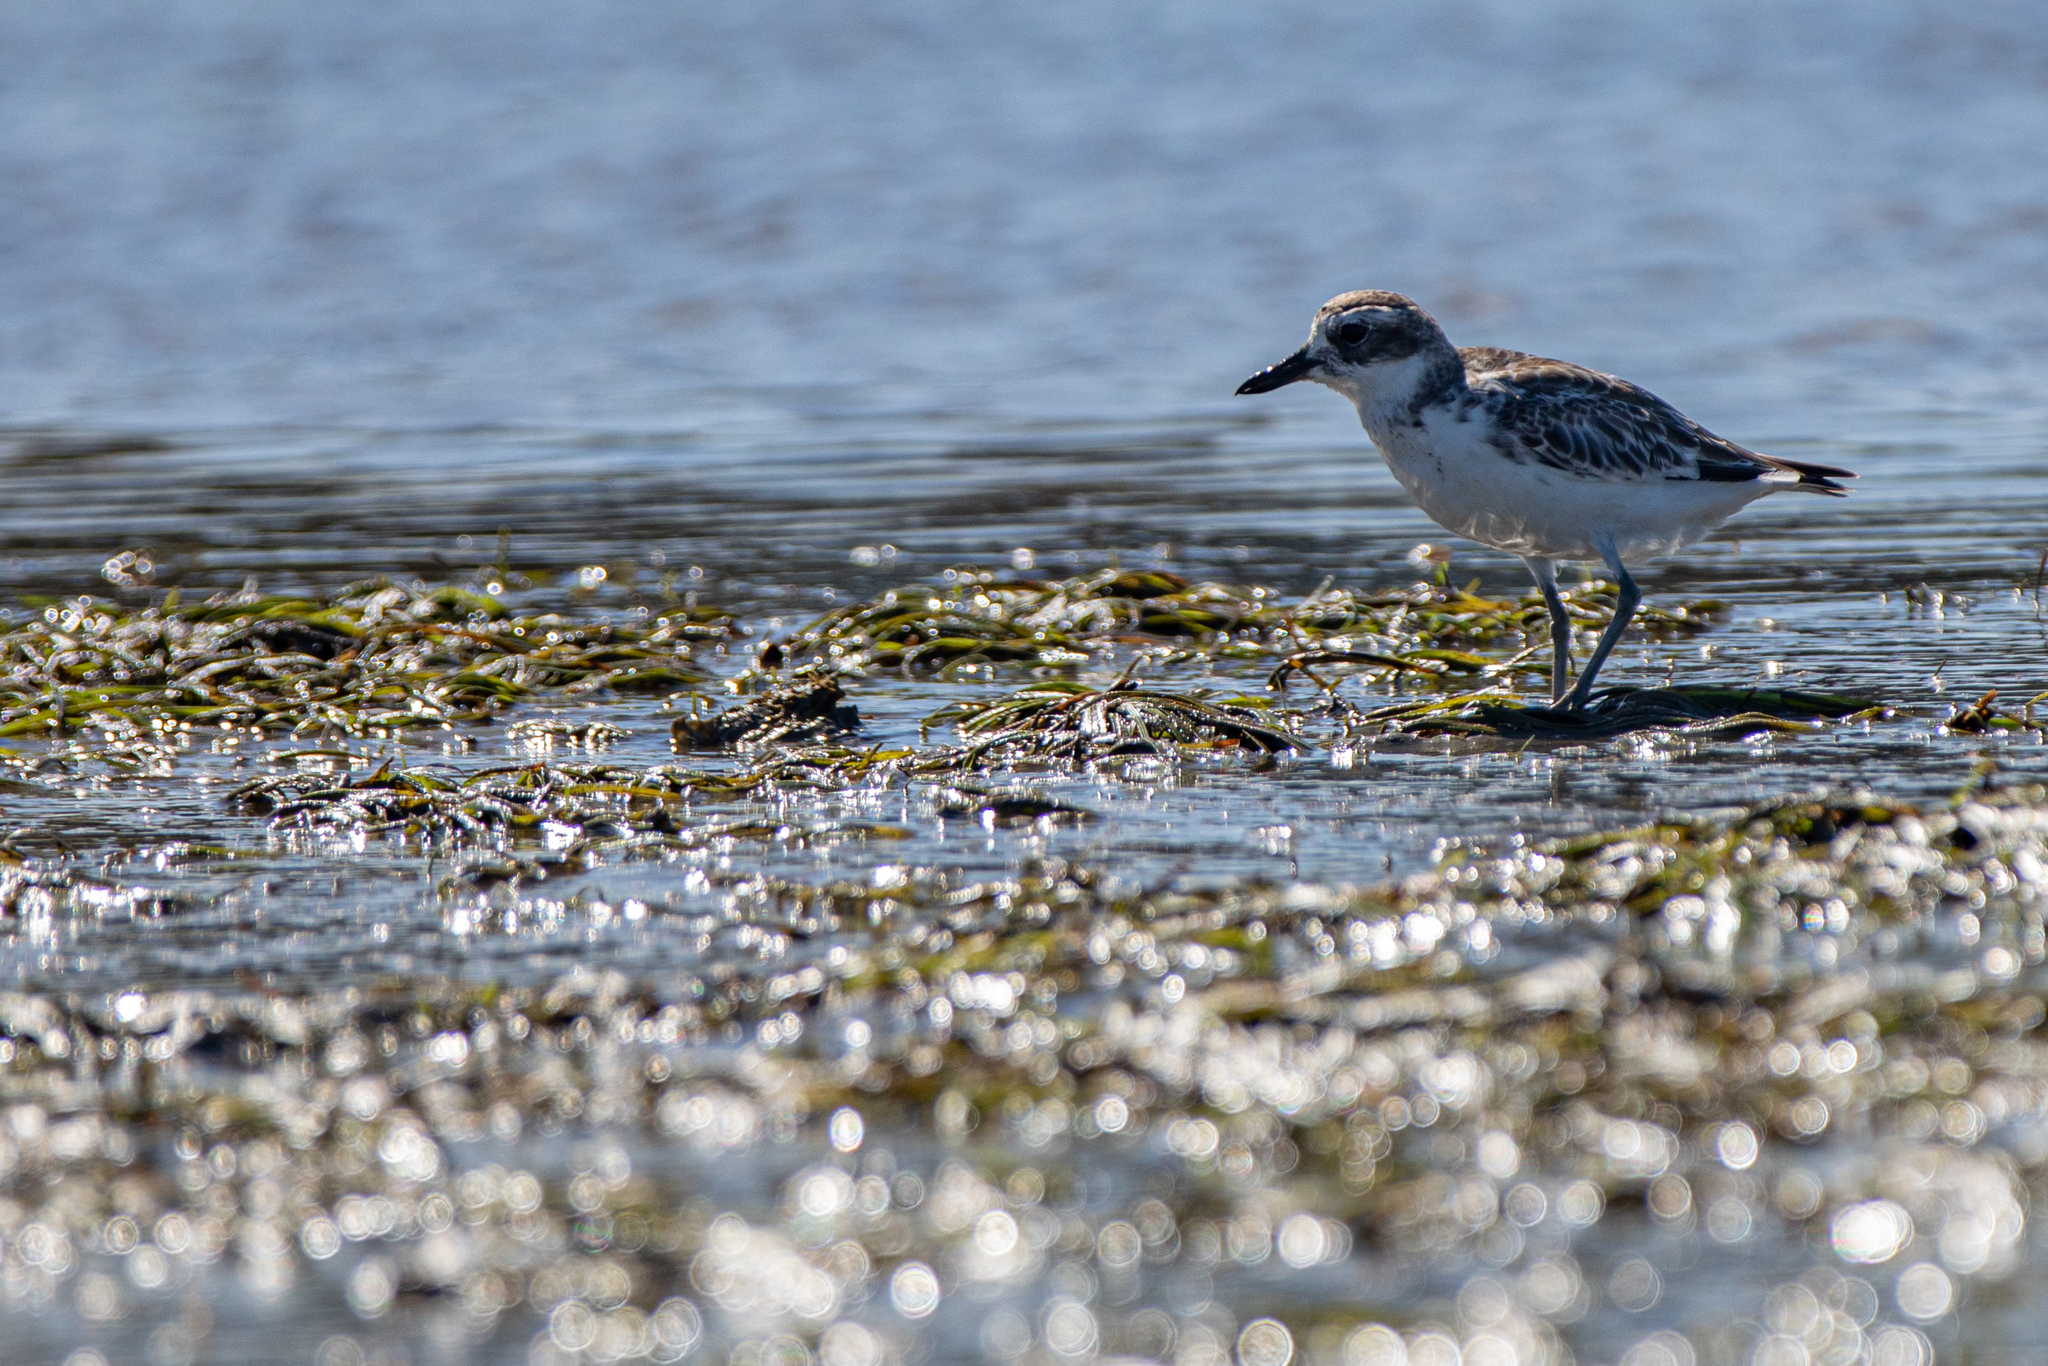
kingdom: Animalia
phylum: Chordata
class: Aves
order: Charadriiformes
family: Charadriidae
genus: Anarhynchus
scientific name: Anarhynchus
